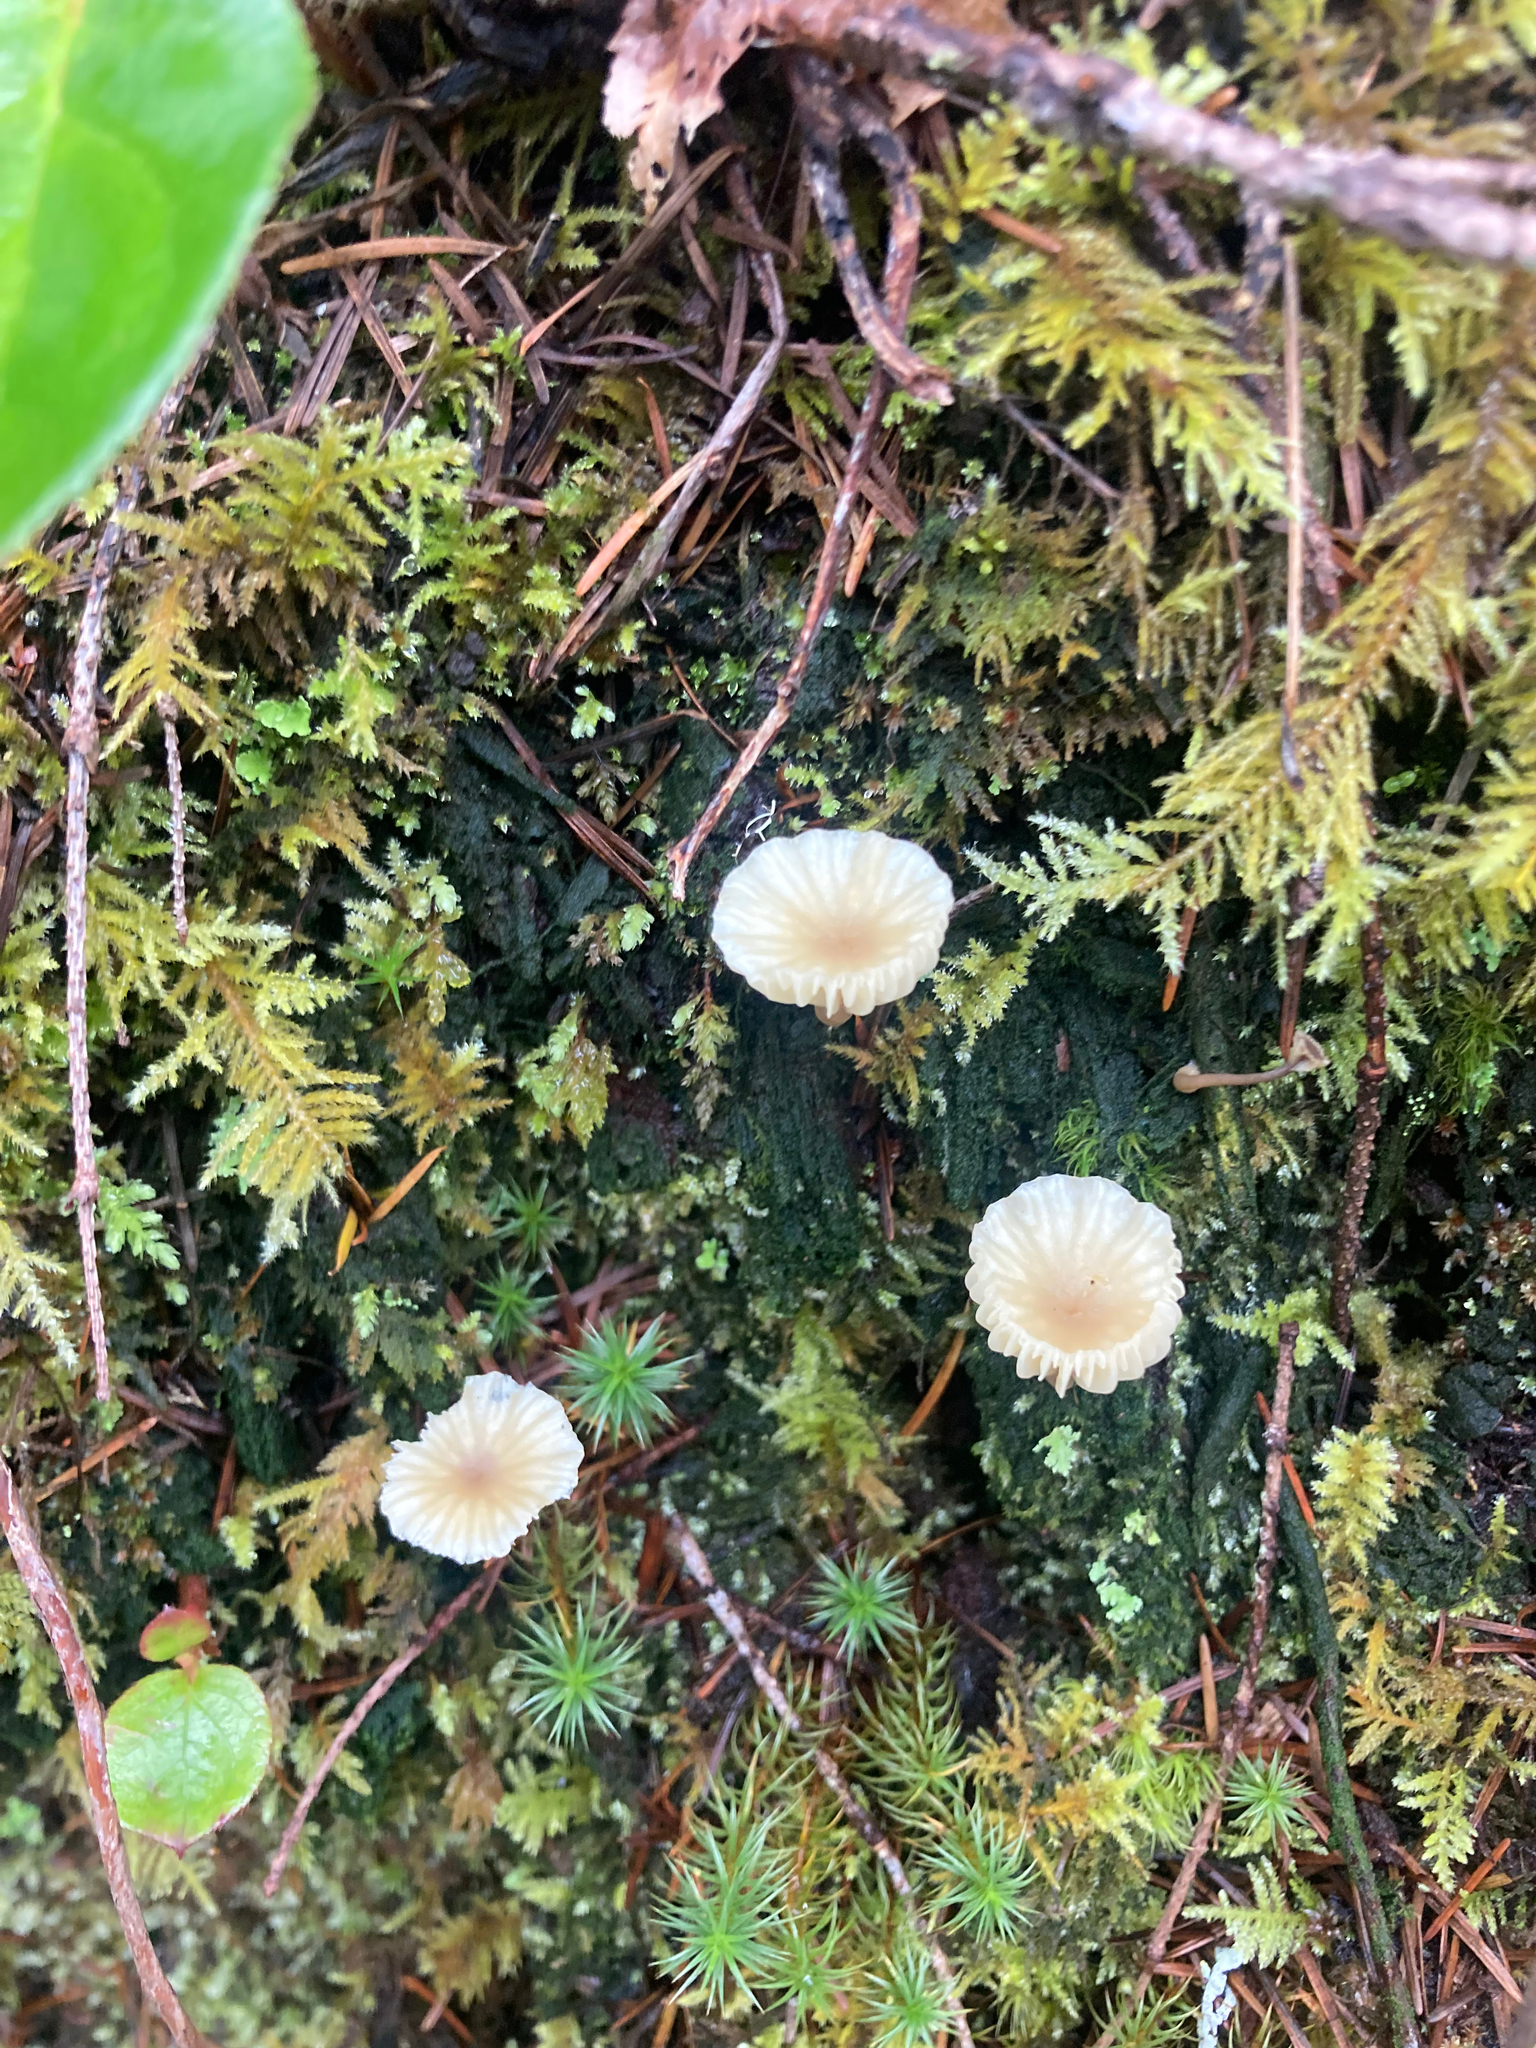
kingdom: Fungi
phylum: Basidiomycota
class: Agaricomycetes
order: Agaricales
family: Hygrophoraceae
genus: Lichenomphalia
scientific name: Lichenomphalia
